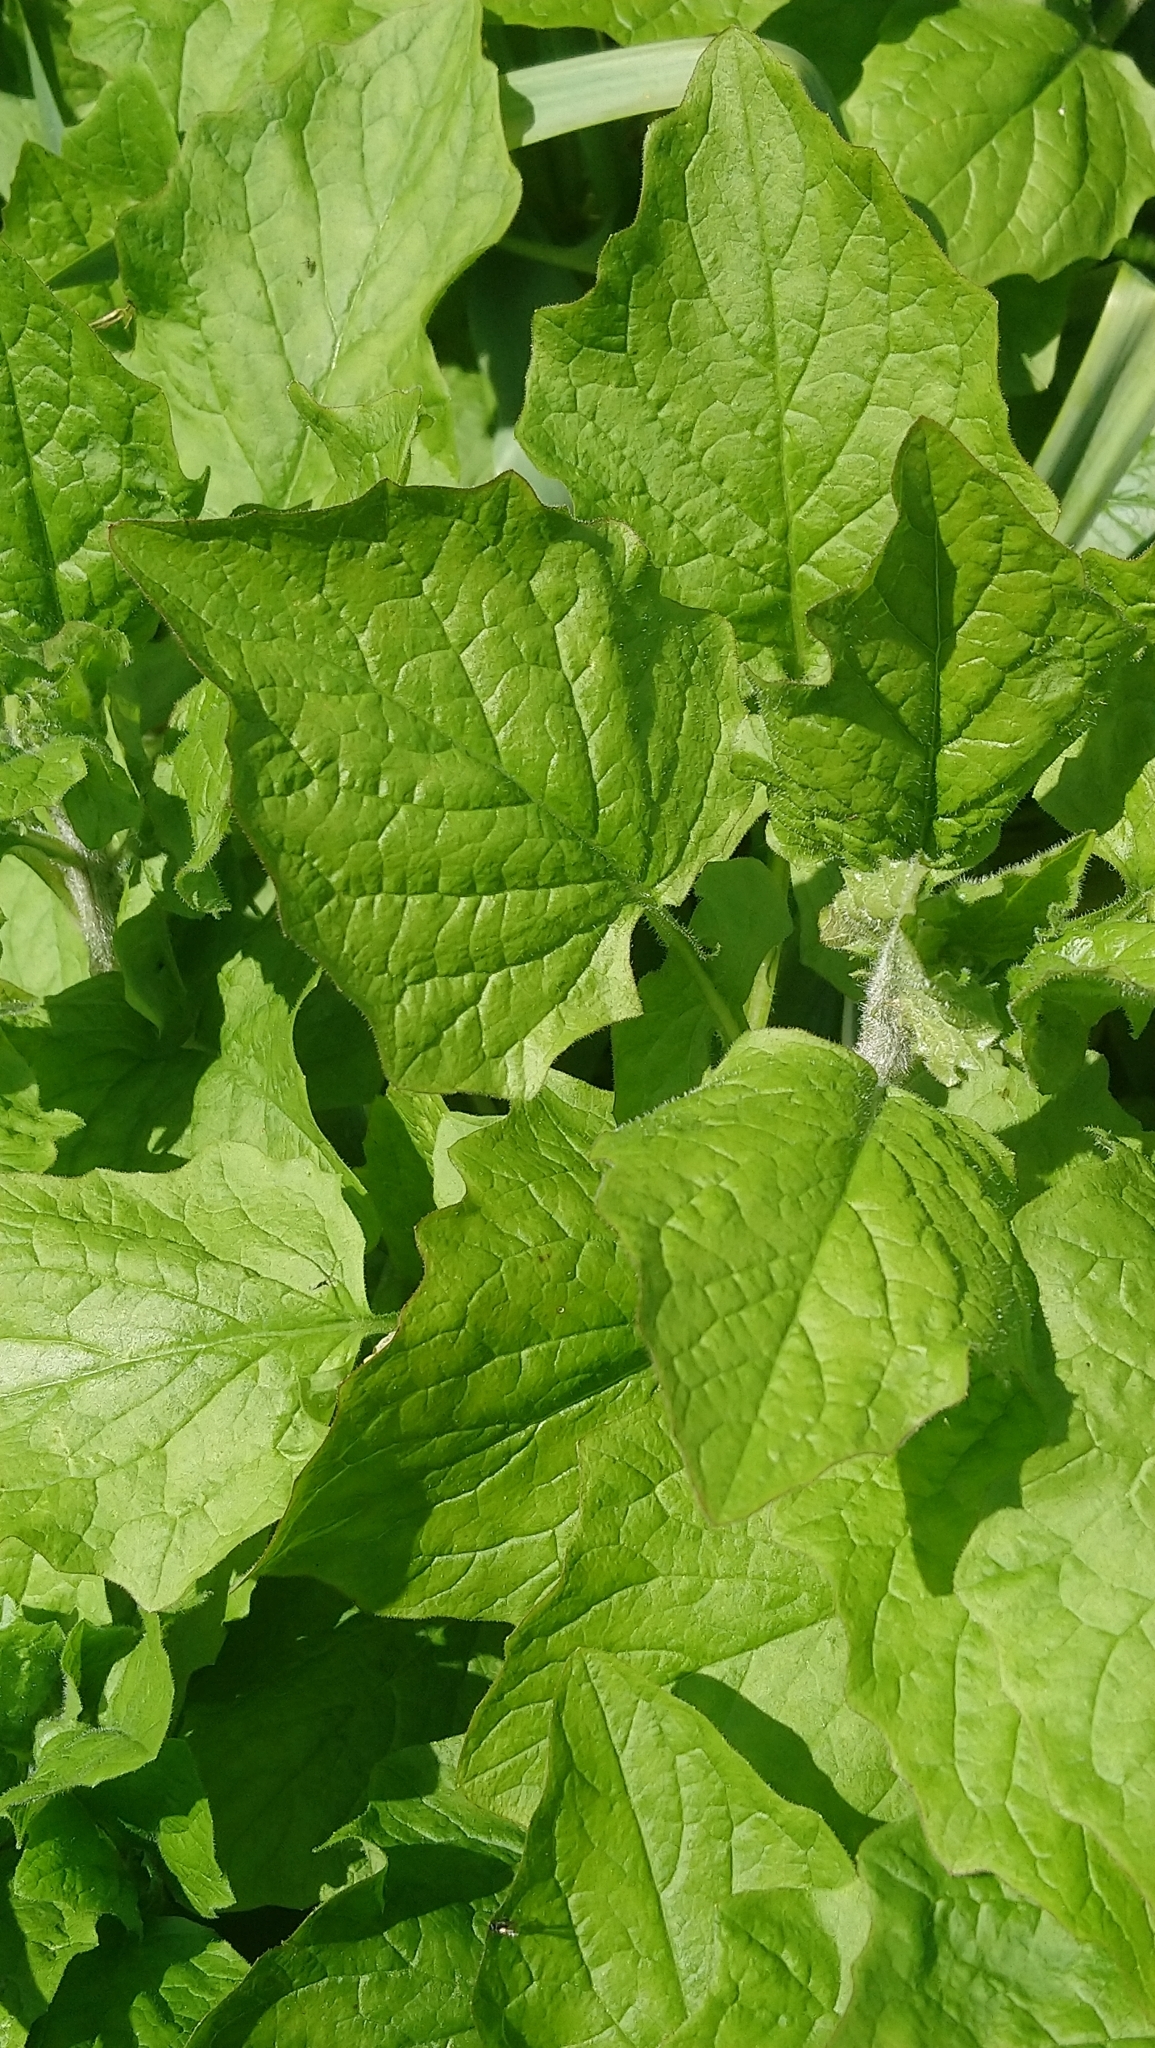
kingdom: Plantae
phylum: Tracheophyta
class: Magnoliopsida
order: Asterales
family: Asteraceae
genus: Lapsana
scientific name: Lapsana communis
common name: Nipplewort
